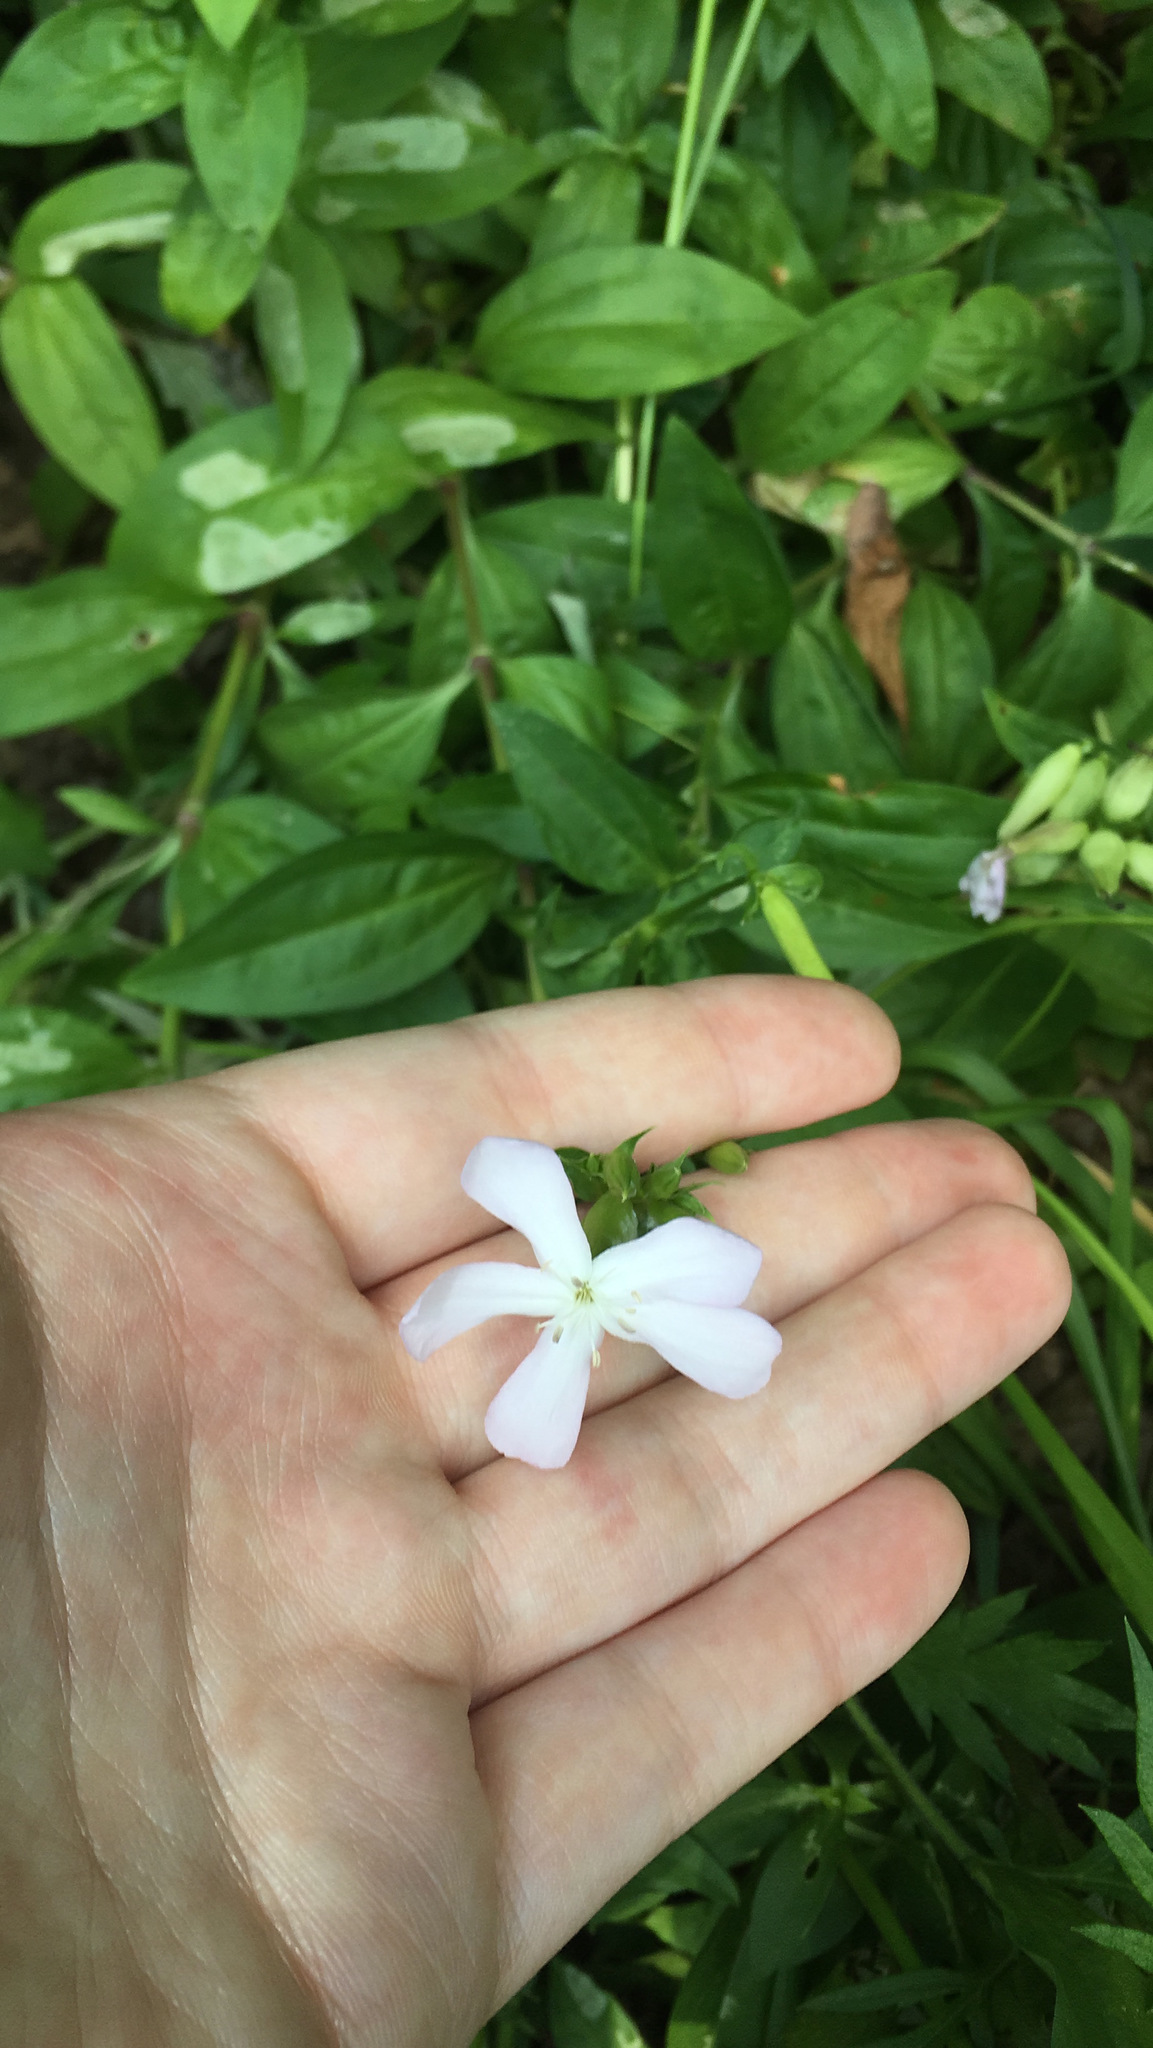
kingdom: Plantae
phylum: Tracheophyta
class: Magnoliopsida
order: Caryophyllales
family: Caryophyllaceae
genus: Saponaria
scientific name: Saponaria officinalis
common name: Soapwort
